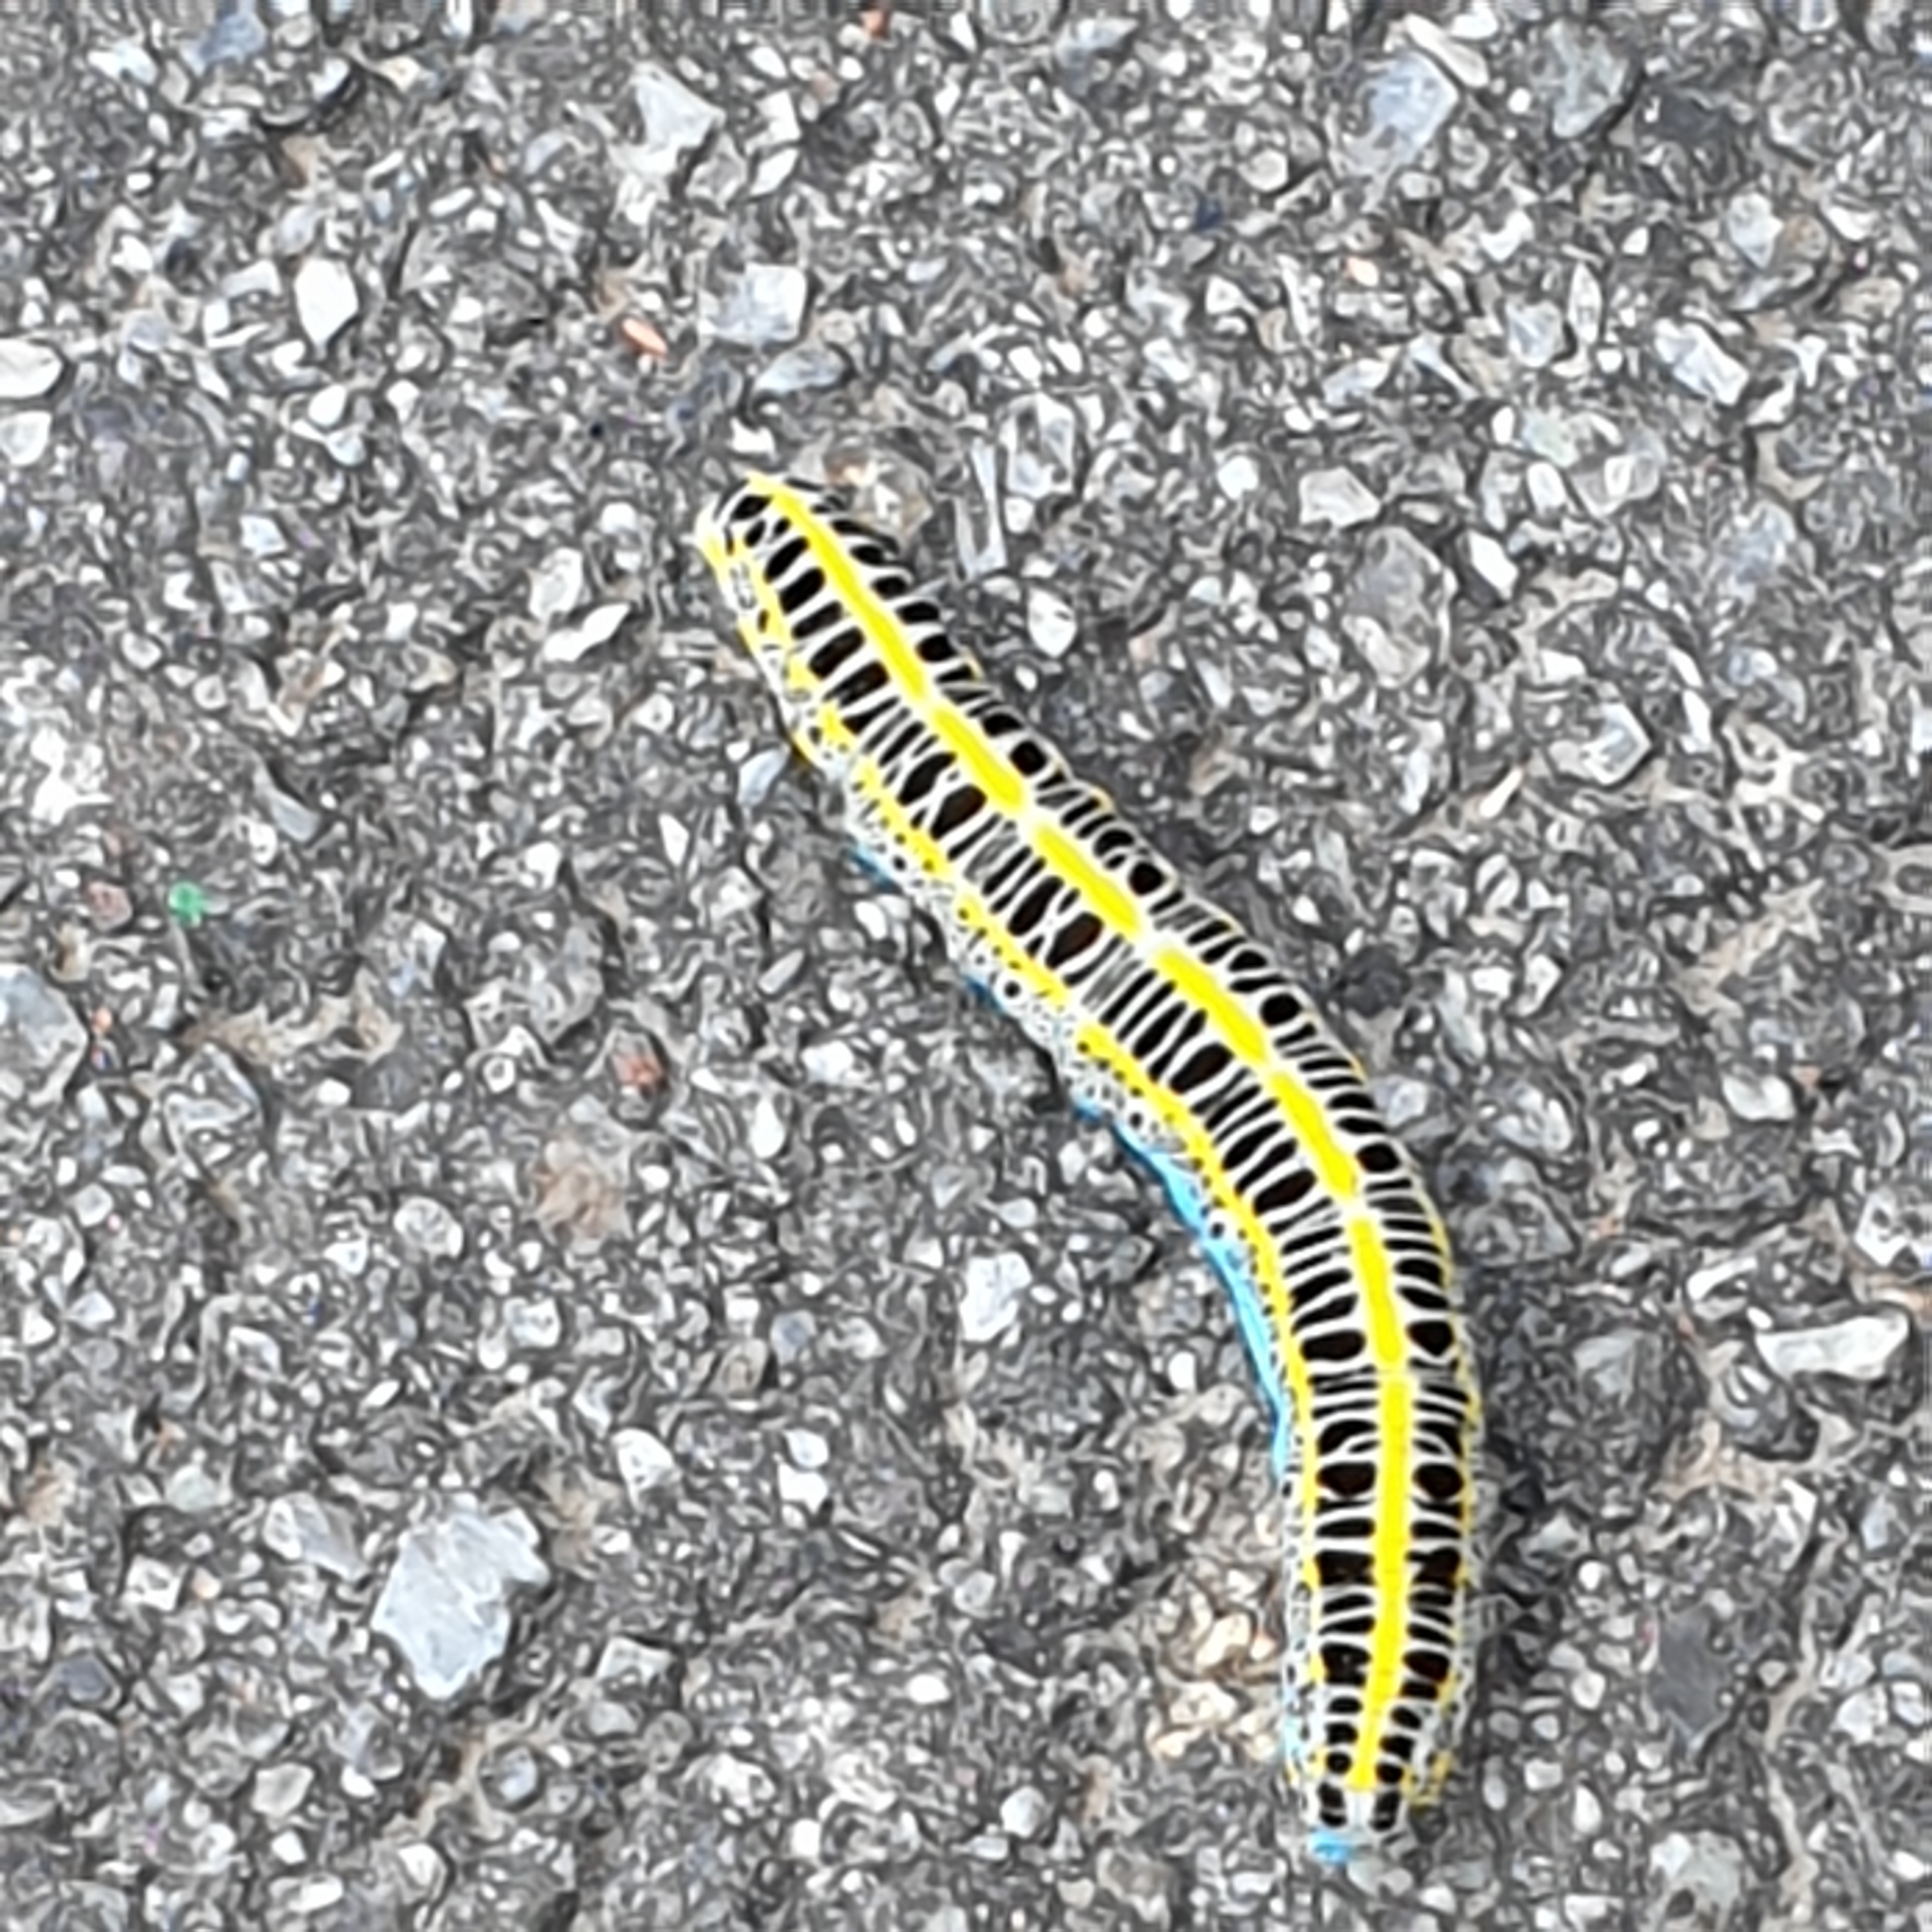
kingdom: Animalia
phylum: Arthropoda
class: Insecta
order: Lepidoptera
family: Noctuidae
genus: Calophasia
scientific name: Calophasia lunula
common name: Toadflax brocade
